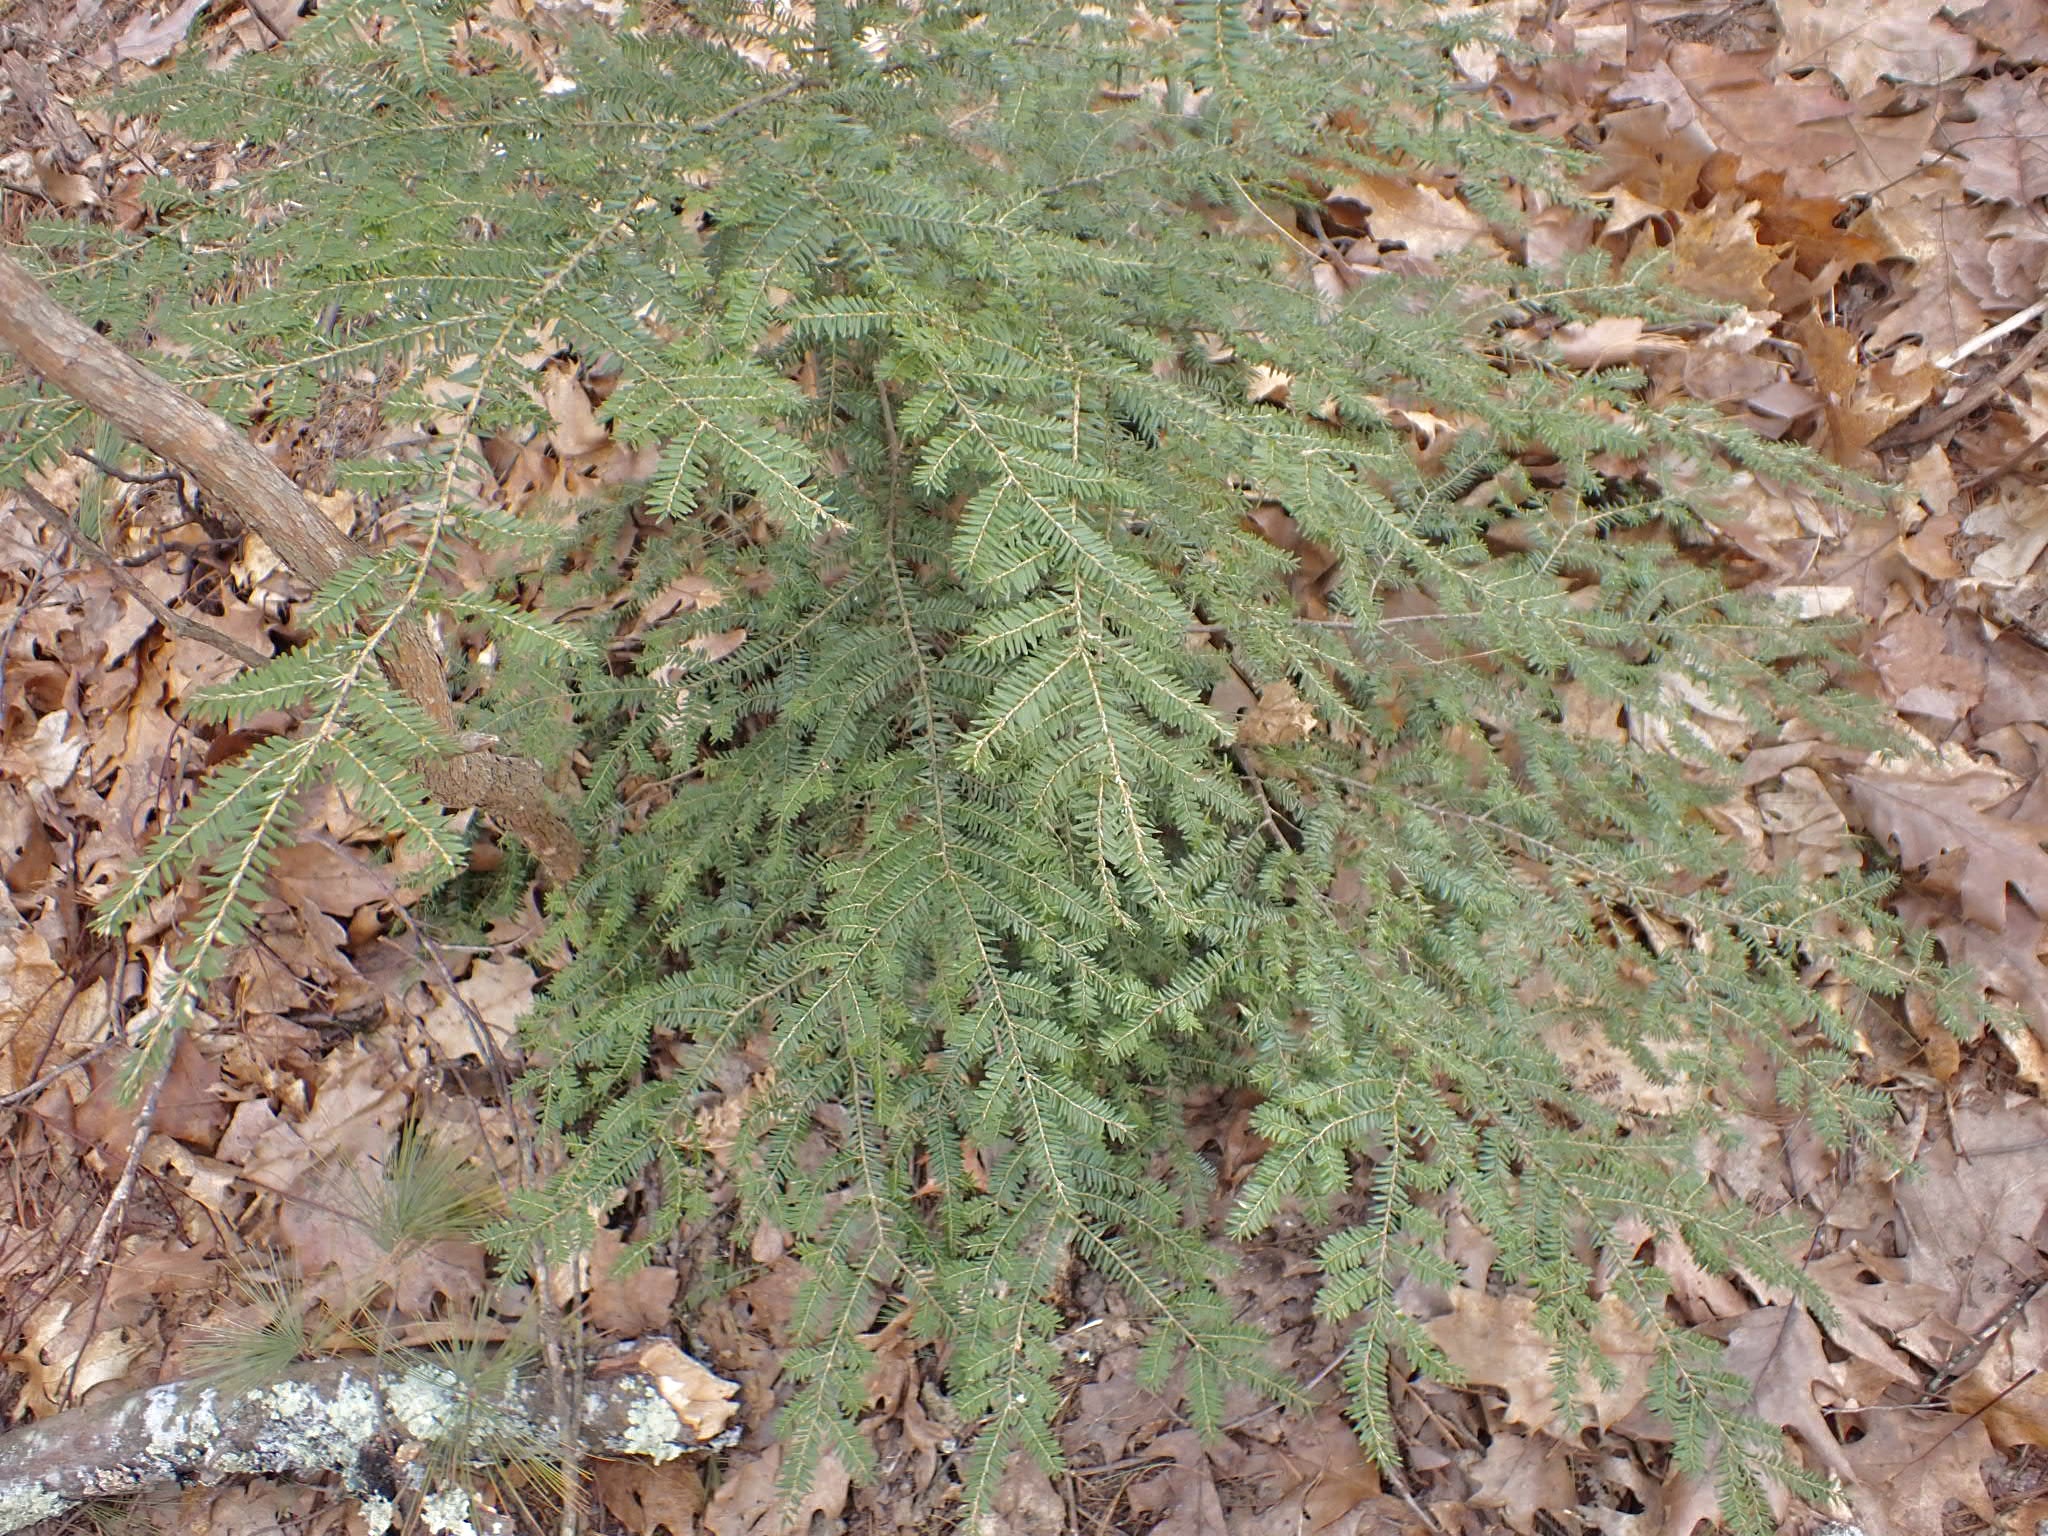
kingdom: Plantae
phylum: Tracheophyta
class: Pinopsida
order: Pinales
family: Pinaceae
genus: Tsuga
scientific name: Tsuga canadensis
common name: Eastern hemlock
